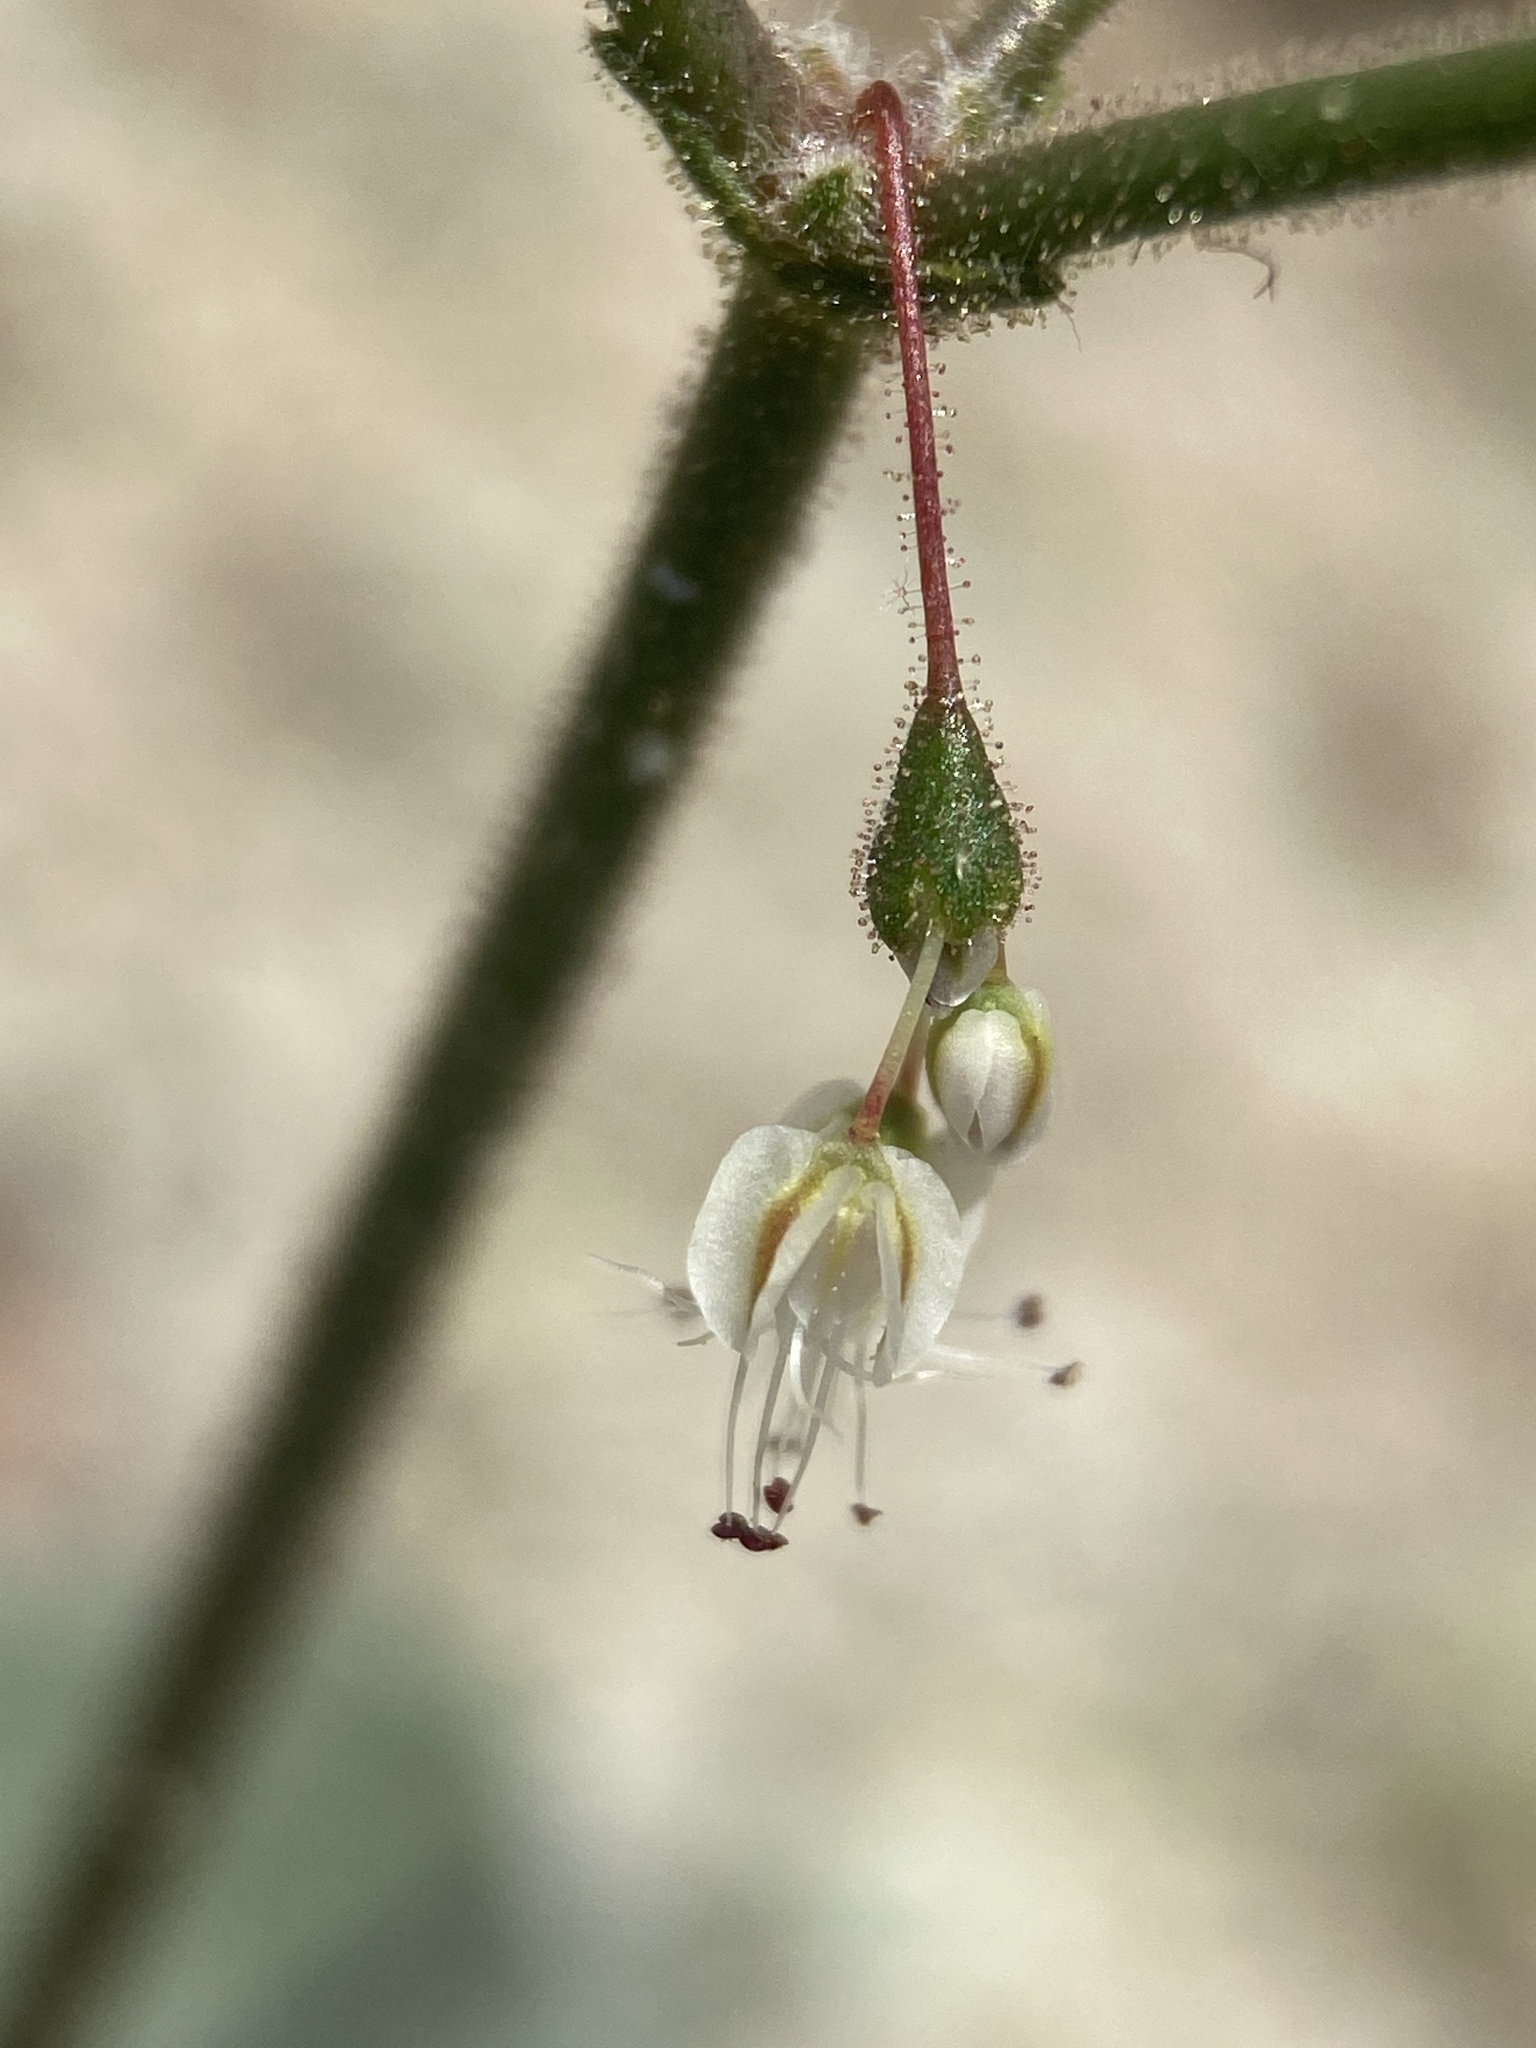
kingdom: Plantae
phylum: Tracheophyta
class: Magnoliopsida
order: Caryophyllales
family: Polygonaceae
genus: Eriogonum
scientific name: Eriogonum brachypodum
